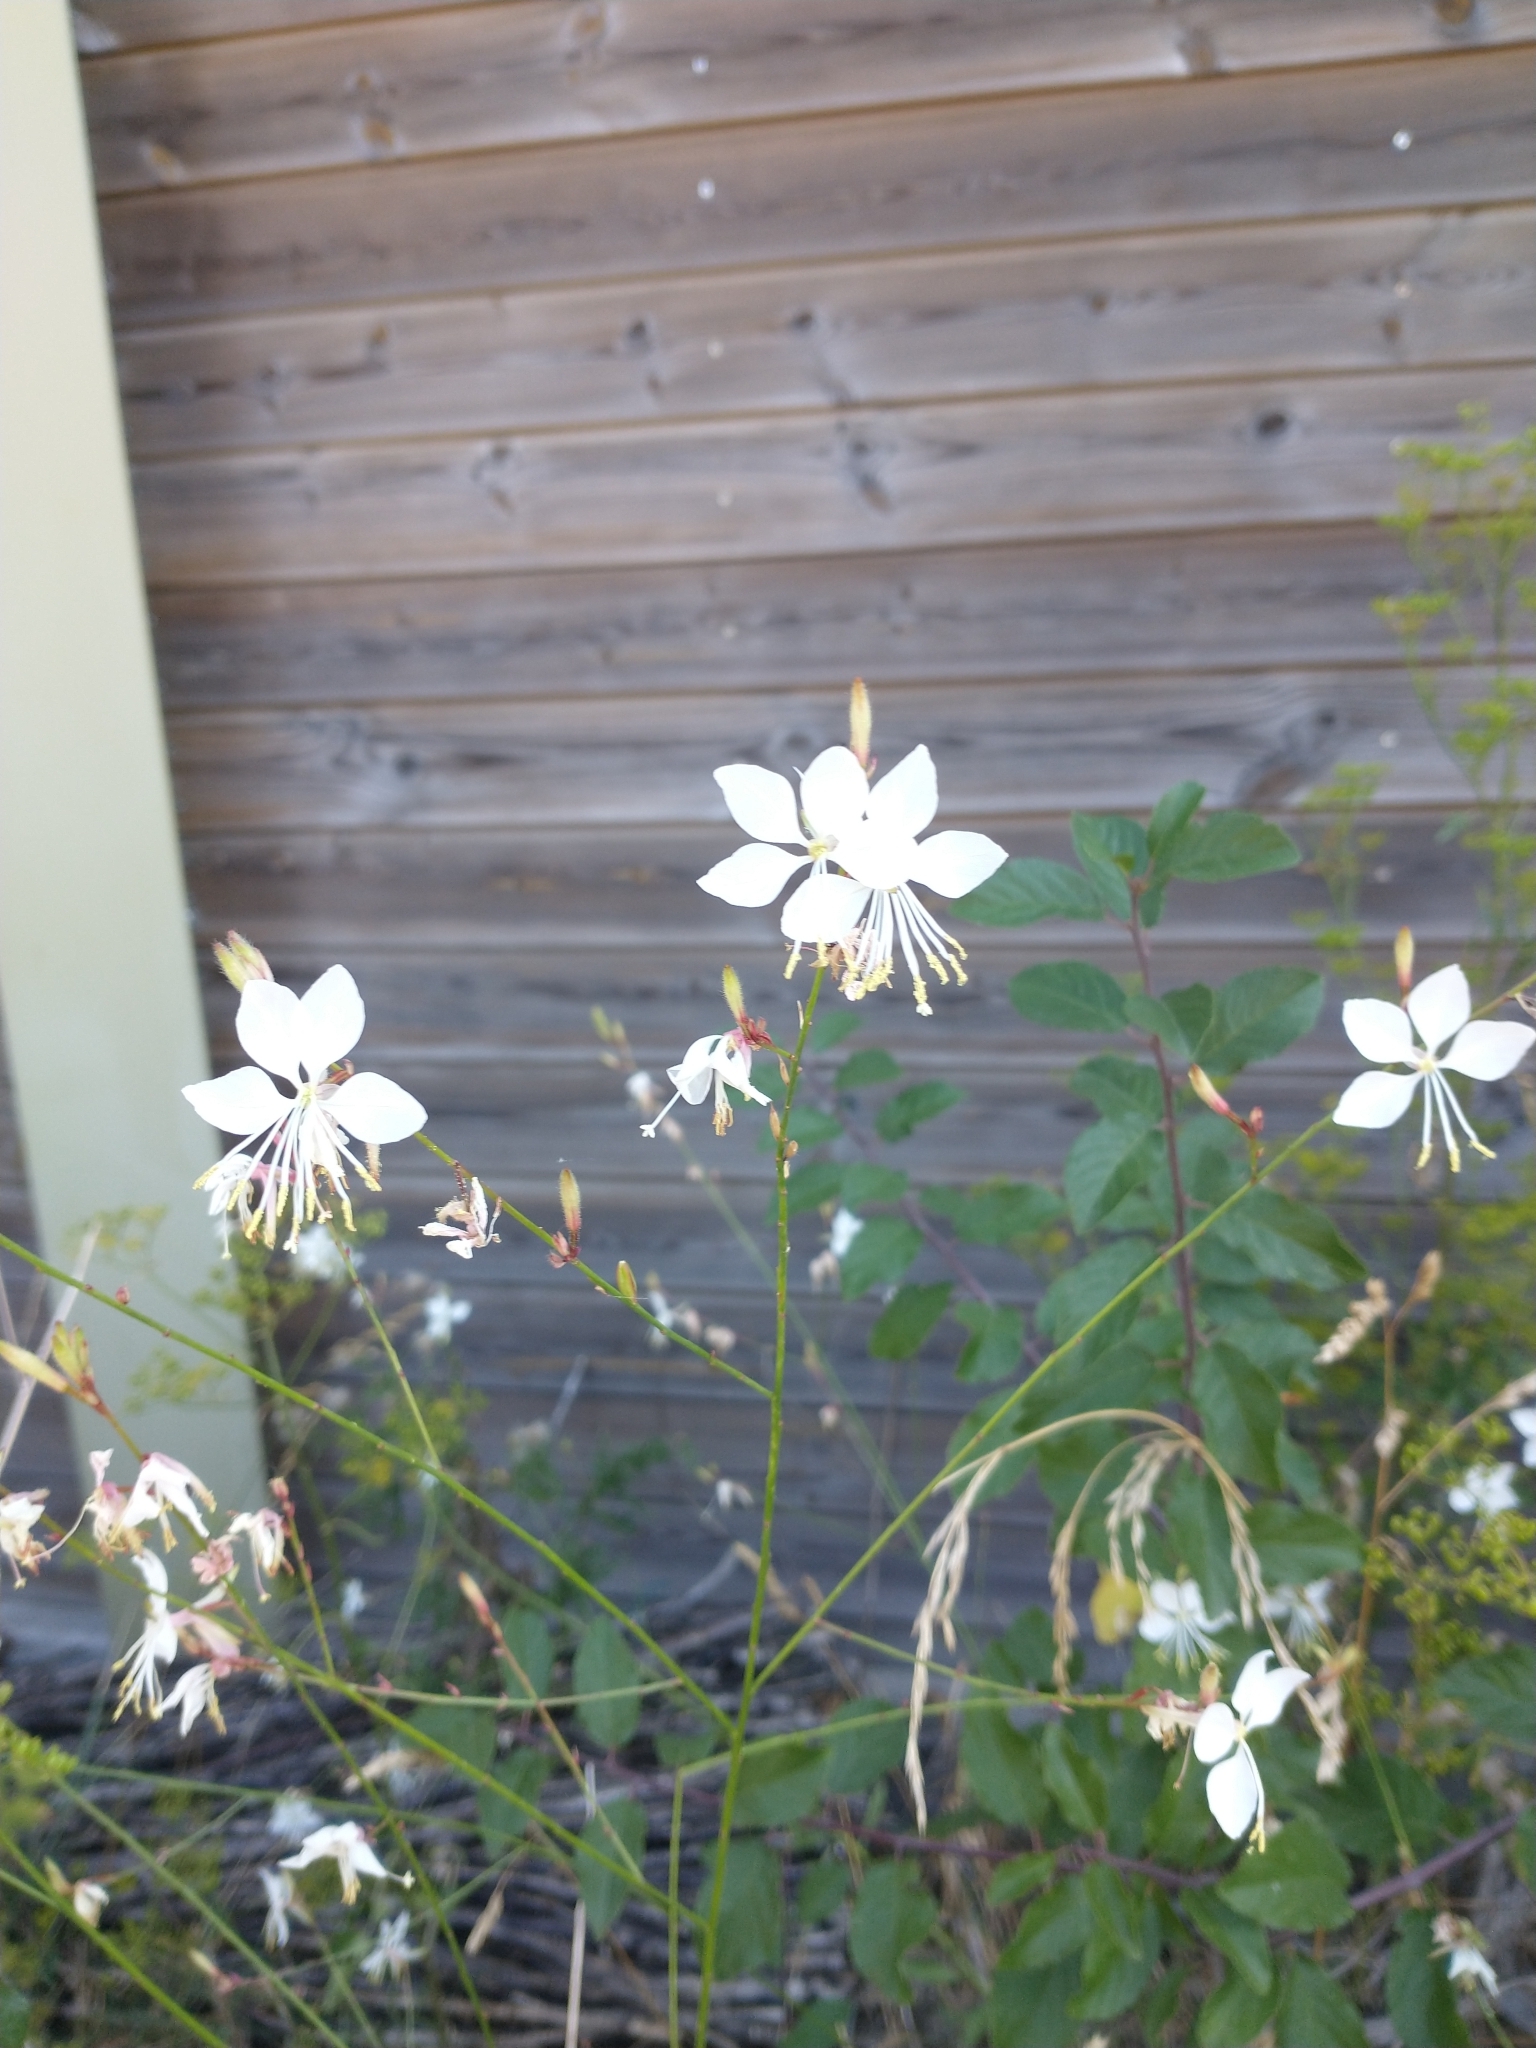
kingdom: Plantae
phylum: Tracheophyta
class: Magnoliopsida
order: Myrtales
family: Onagraceae
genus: Oenothera
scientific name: Oenothera lindheimeri
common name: Lindheimer's beeblossom
